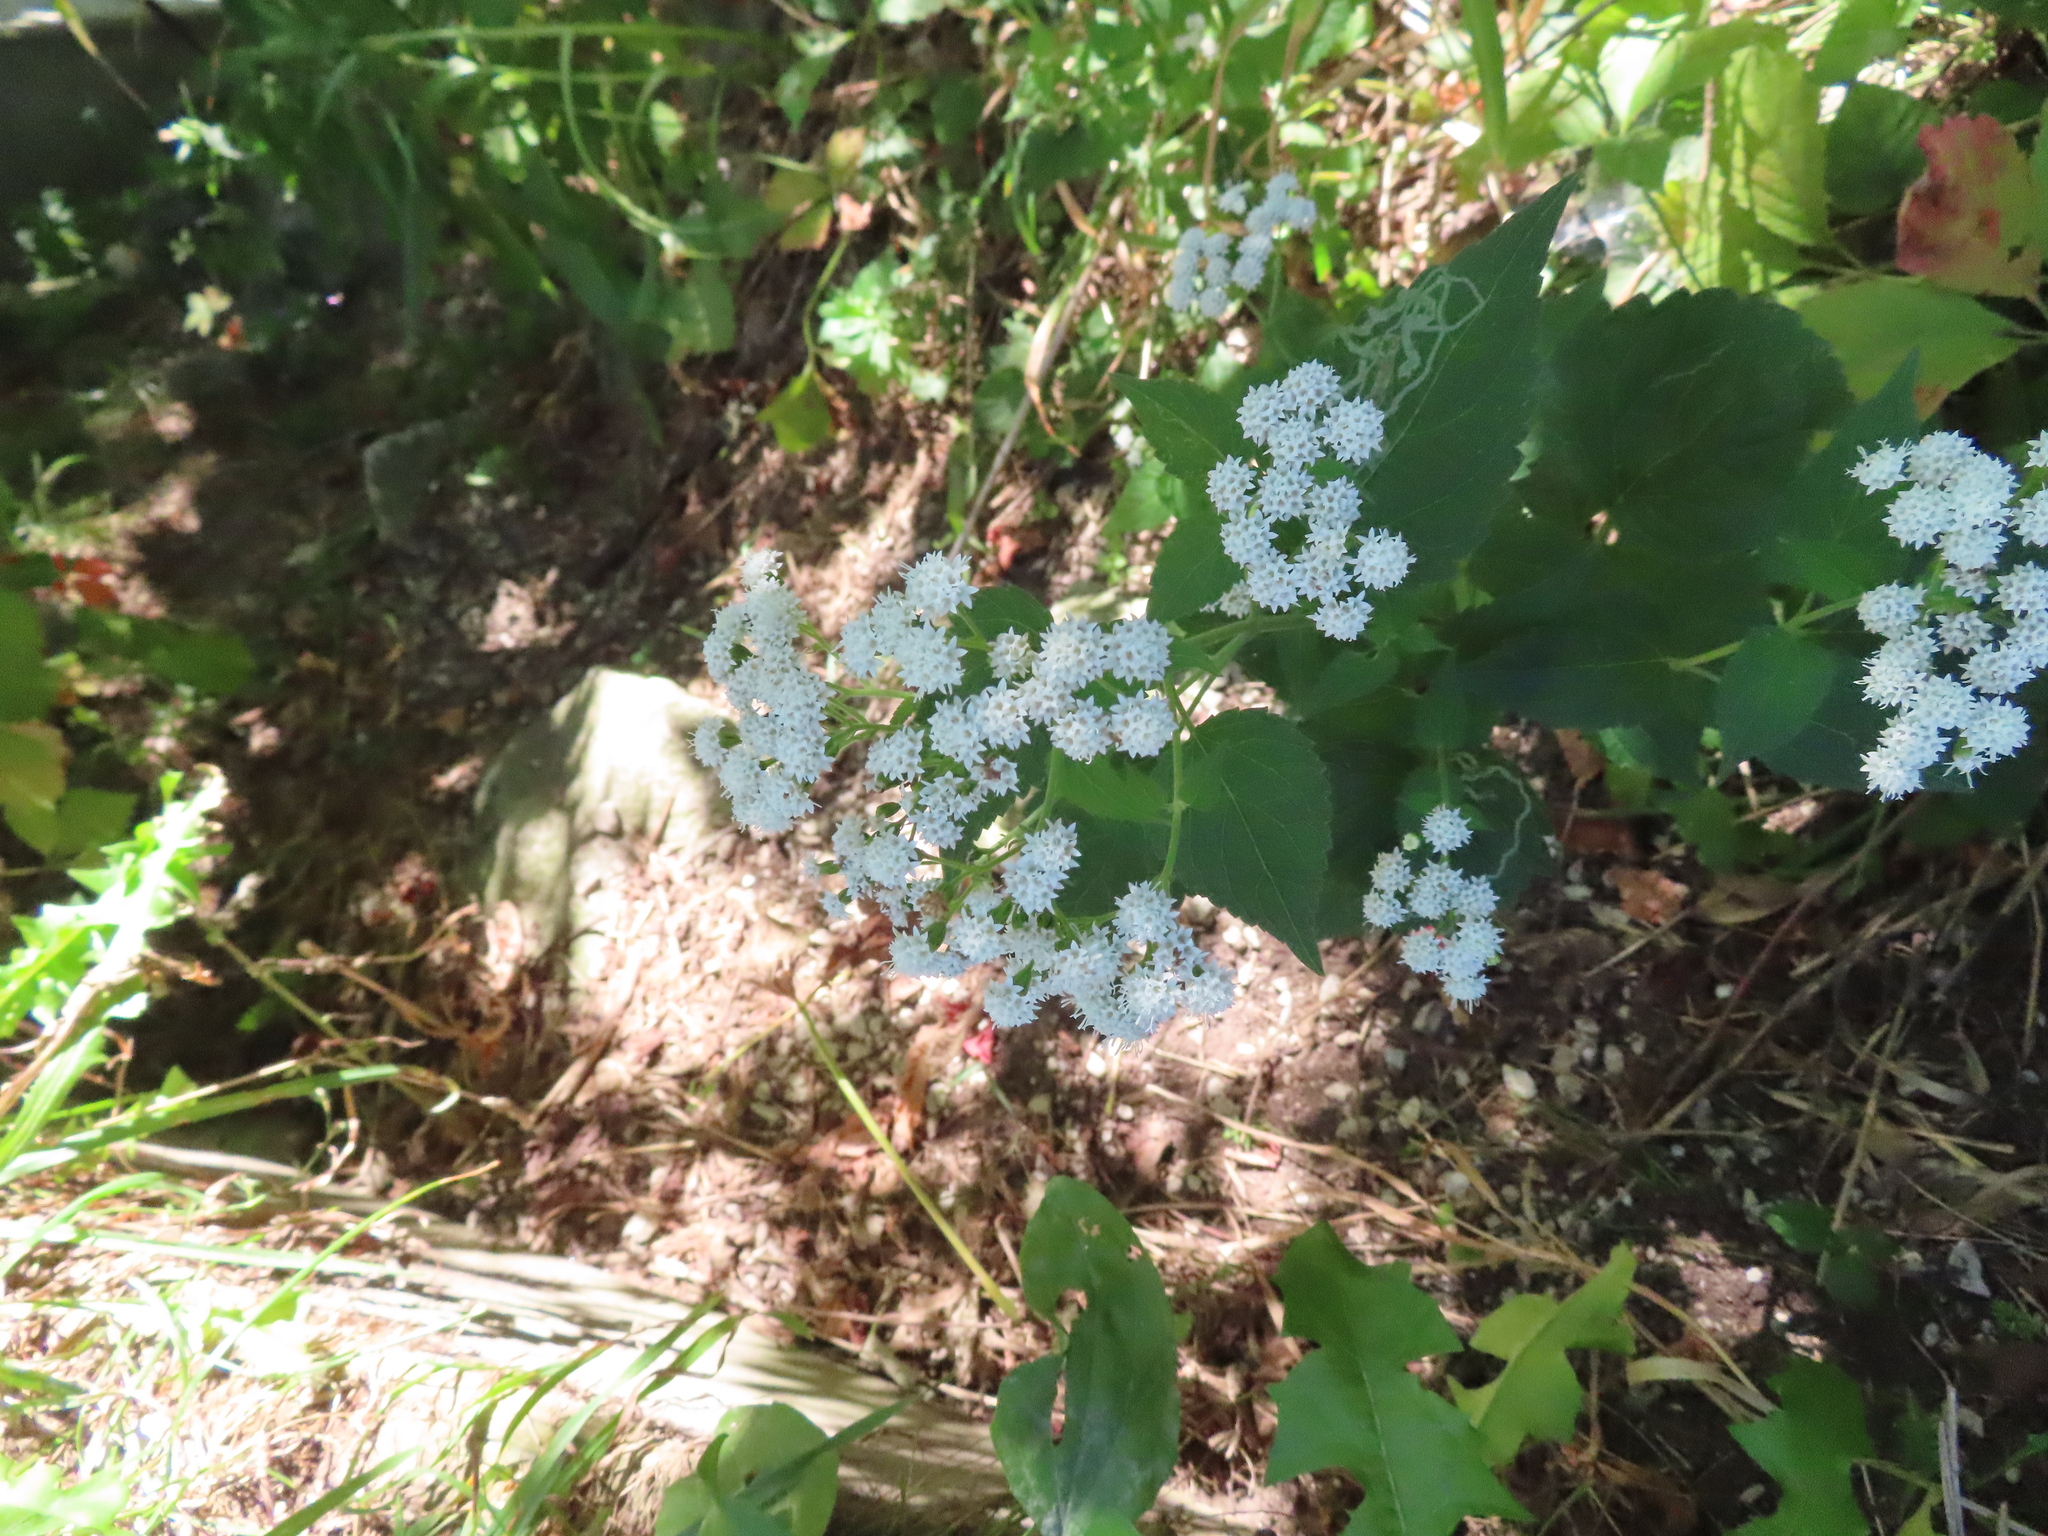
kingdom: Plantae
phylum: Tracheophyta
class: Magnoliopsida
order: Asterales
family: Asteraceae
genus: Ageratina
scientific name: Ageratina altissima
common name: White snakeroot
